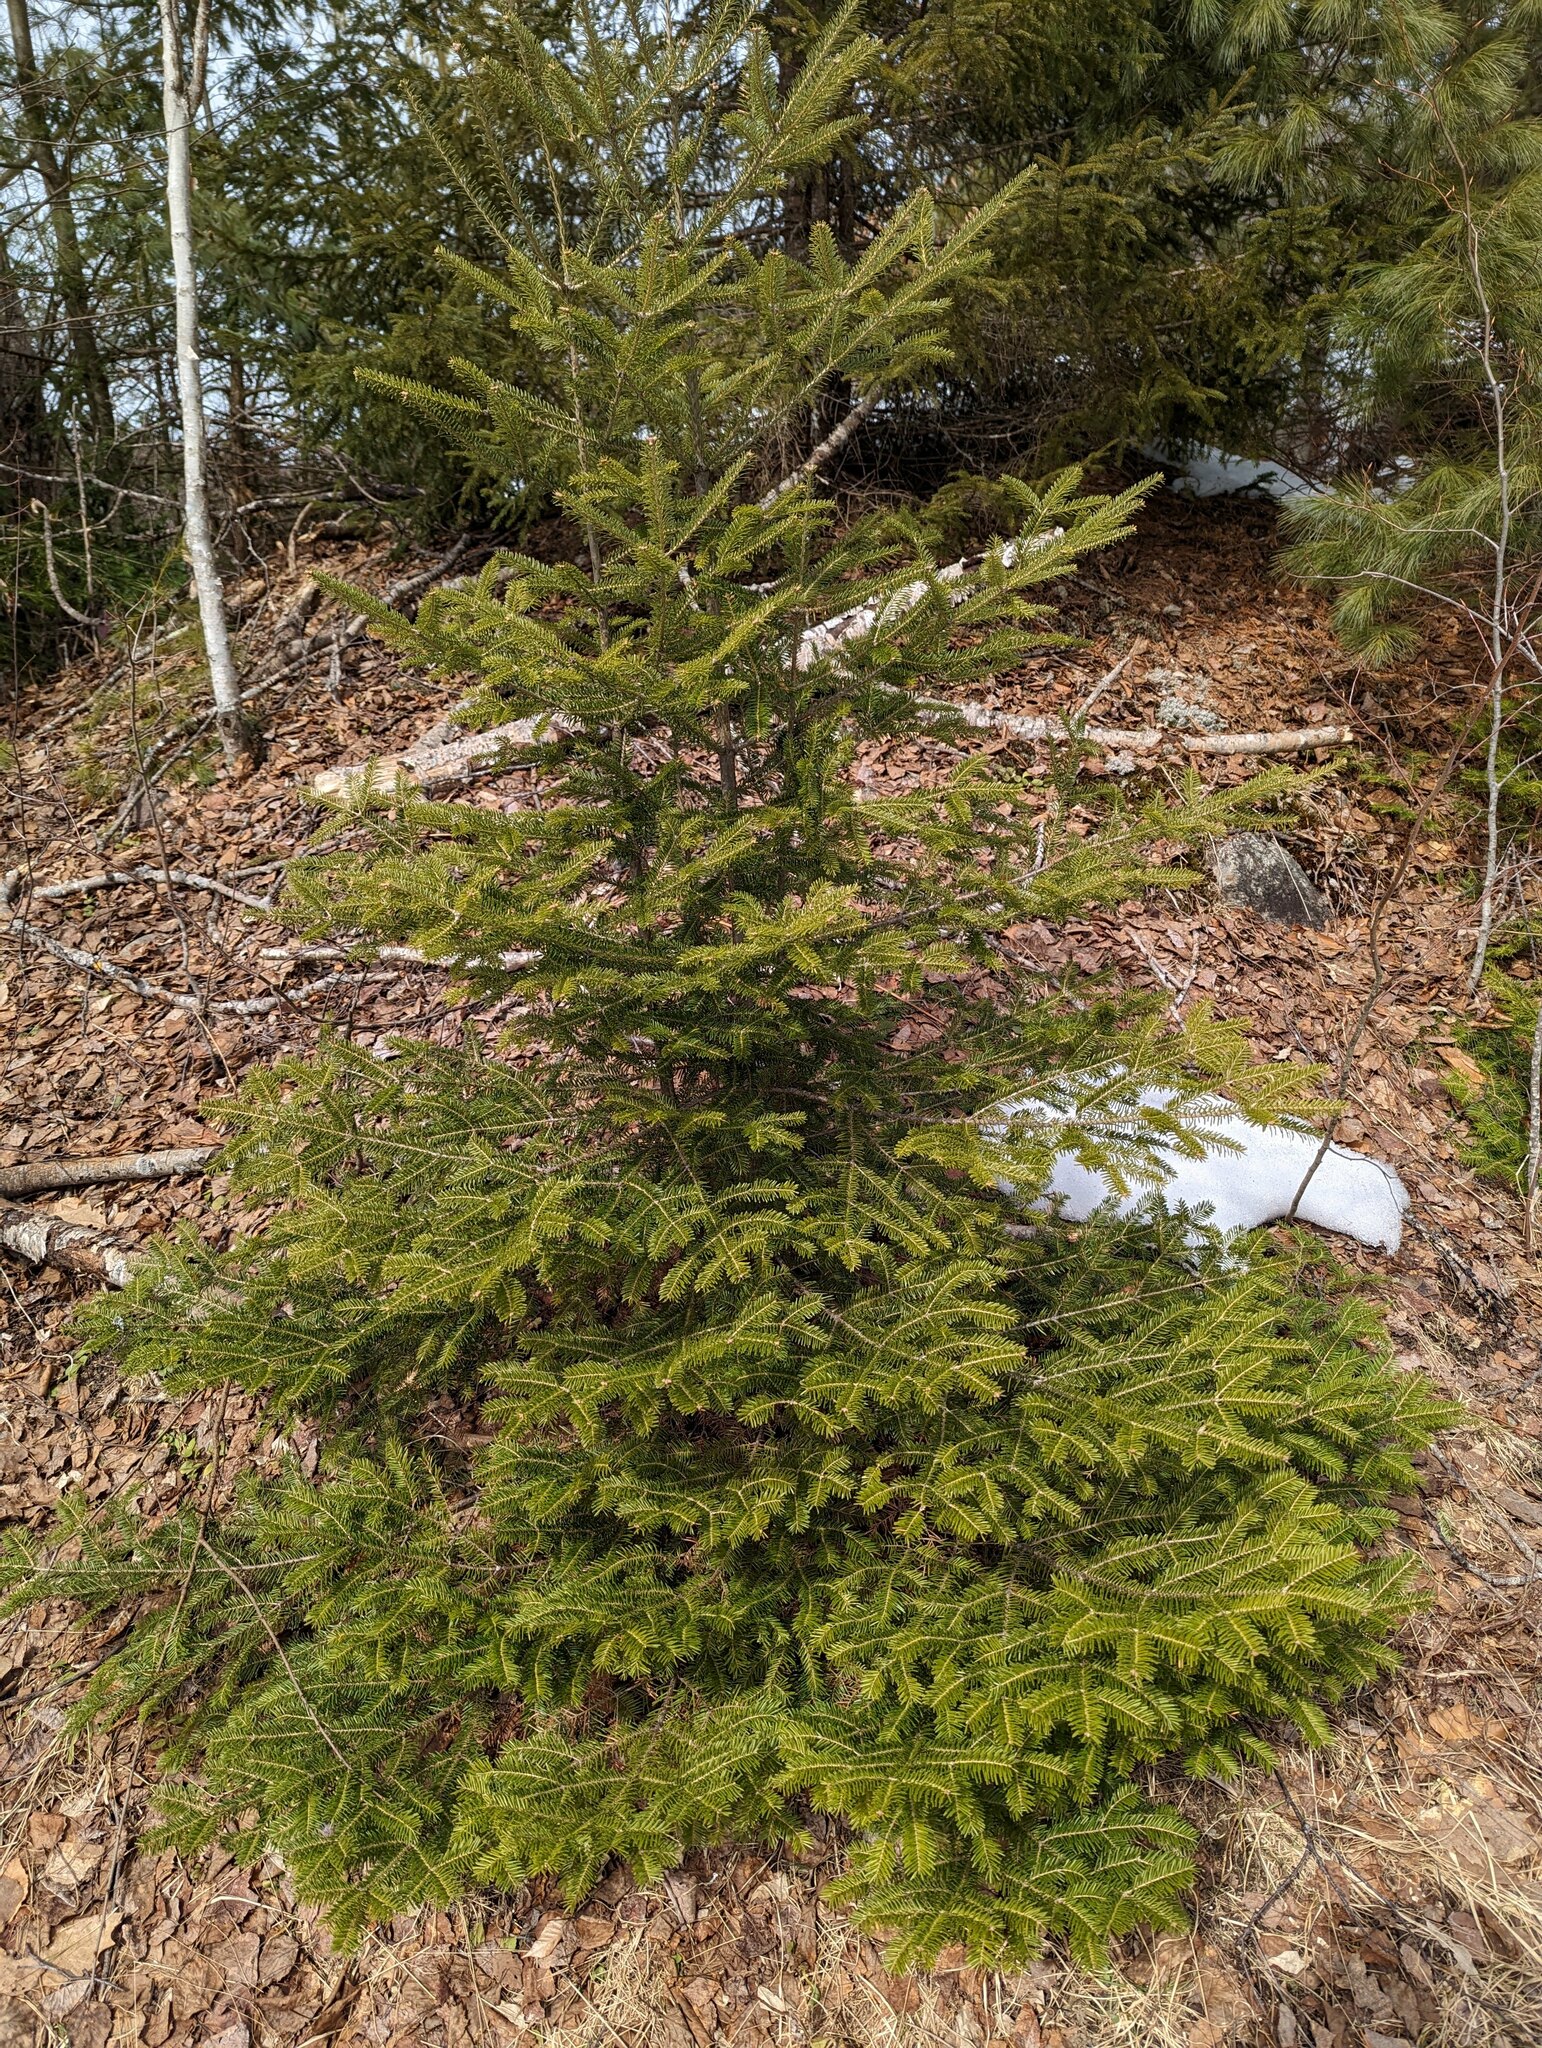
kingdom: Plantae
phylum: Tracheophyta
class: Pinopsida
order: Pinales
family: Pinaceae
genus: Abies
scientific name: Abies balsamea
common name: Balsam fir
